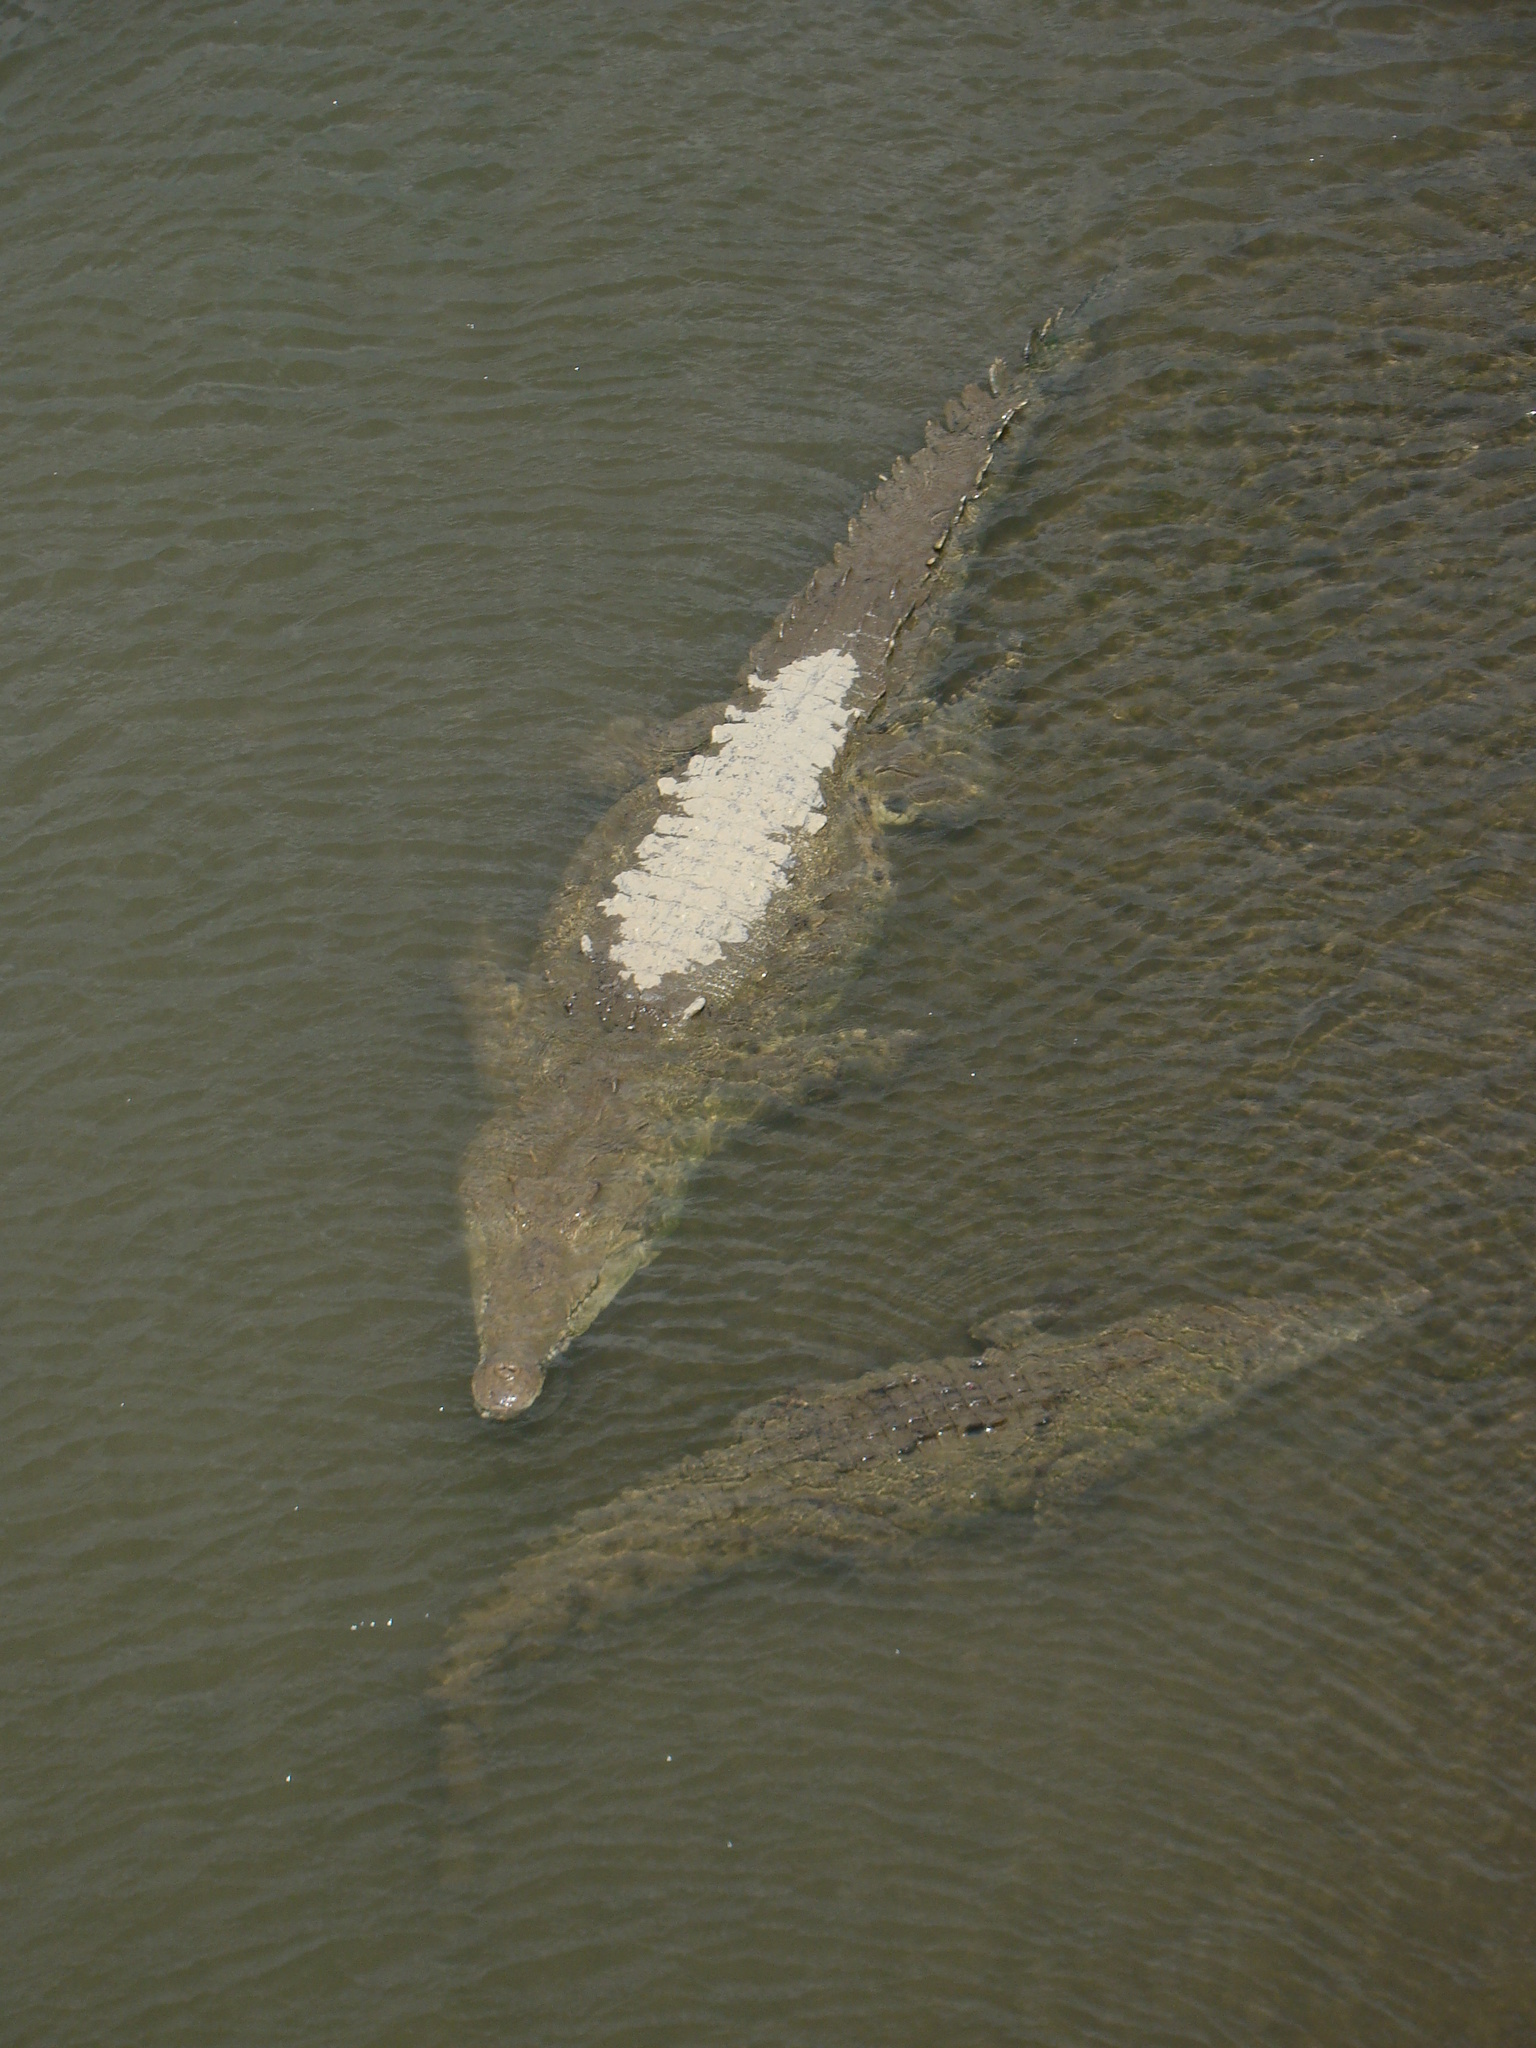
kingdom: Animalia
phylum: Chordata
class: Crocodylia
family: Crocodylidae
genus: Crocodylus
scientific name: Crocodylus acutus
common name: American crocodile
